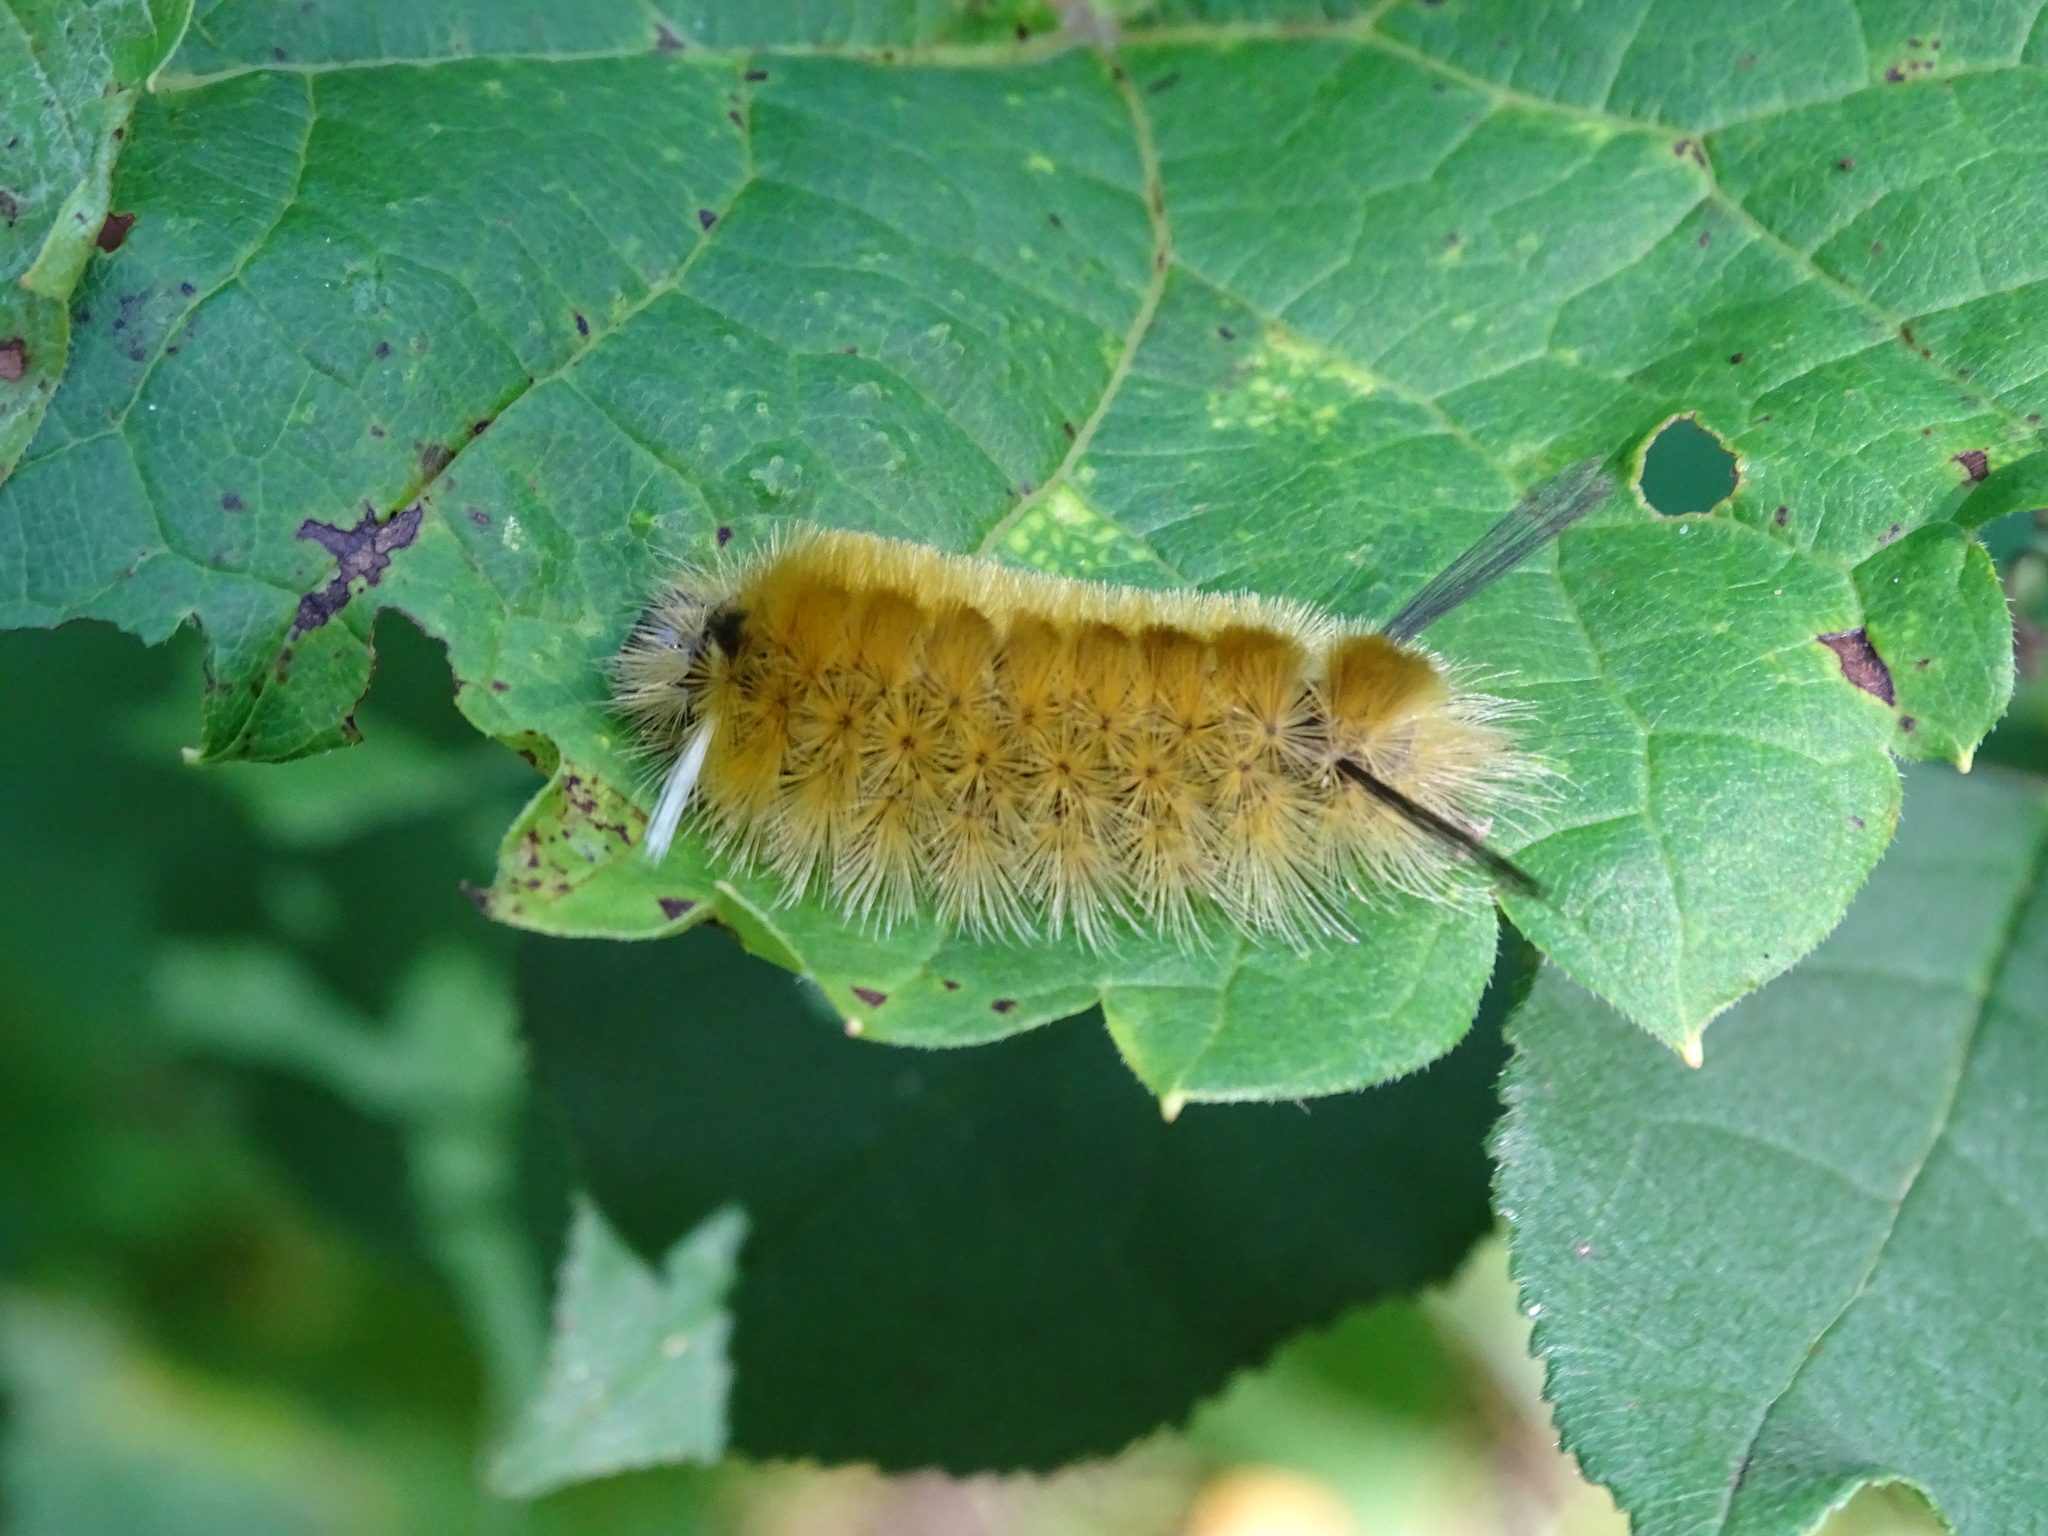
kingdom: Animalia
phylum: Arthropoda
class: Insecta
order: Lepidoptera
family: Erebidae
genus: Halysidota
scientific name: Halysidota tessellaris
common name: Banded tussock moth
